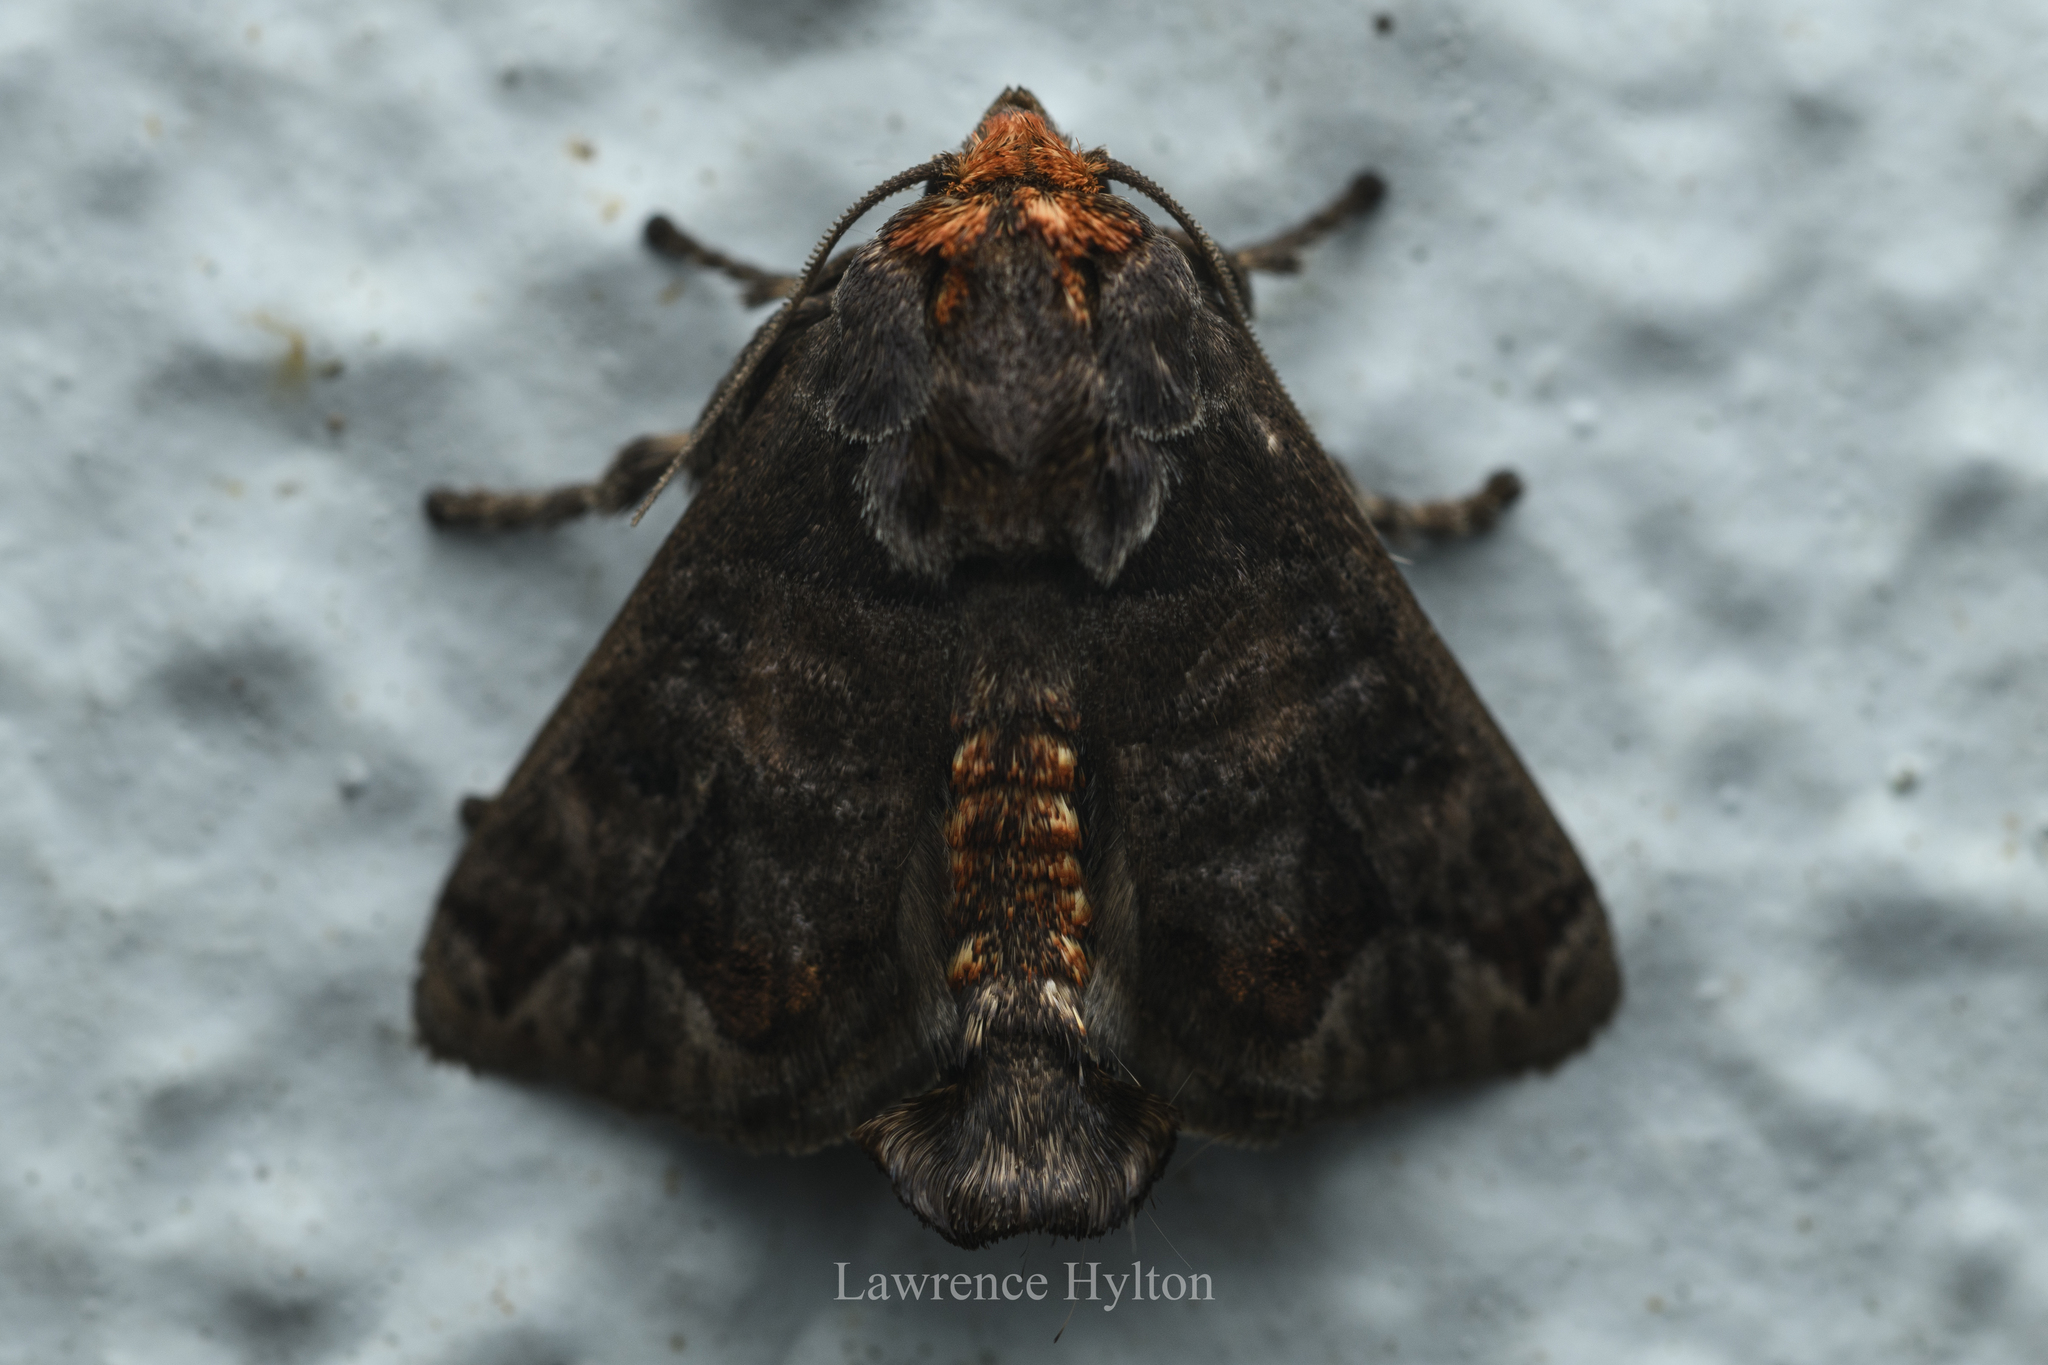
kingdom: Animalia
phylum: Arthropoda
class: Insecta
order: Lepidoptera
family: Limacodidae
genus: Phlossa
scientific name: Phlossa conjuncta
